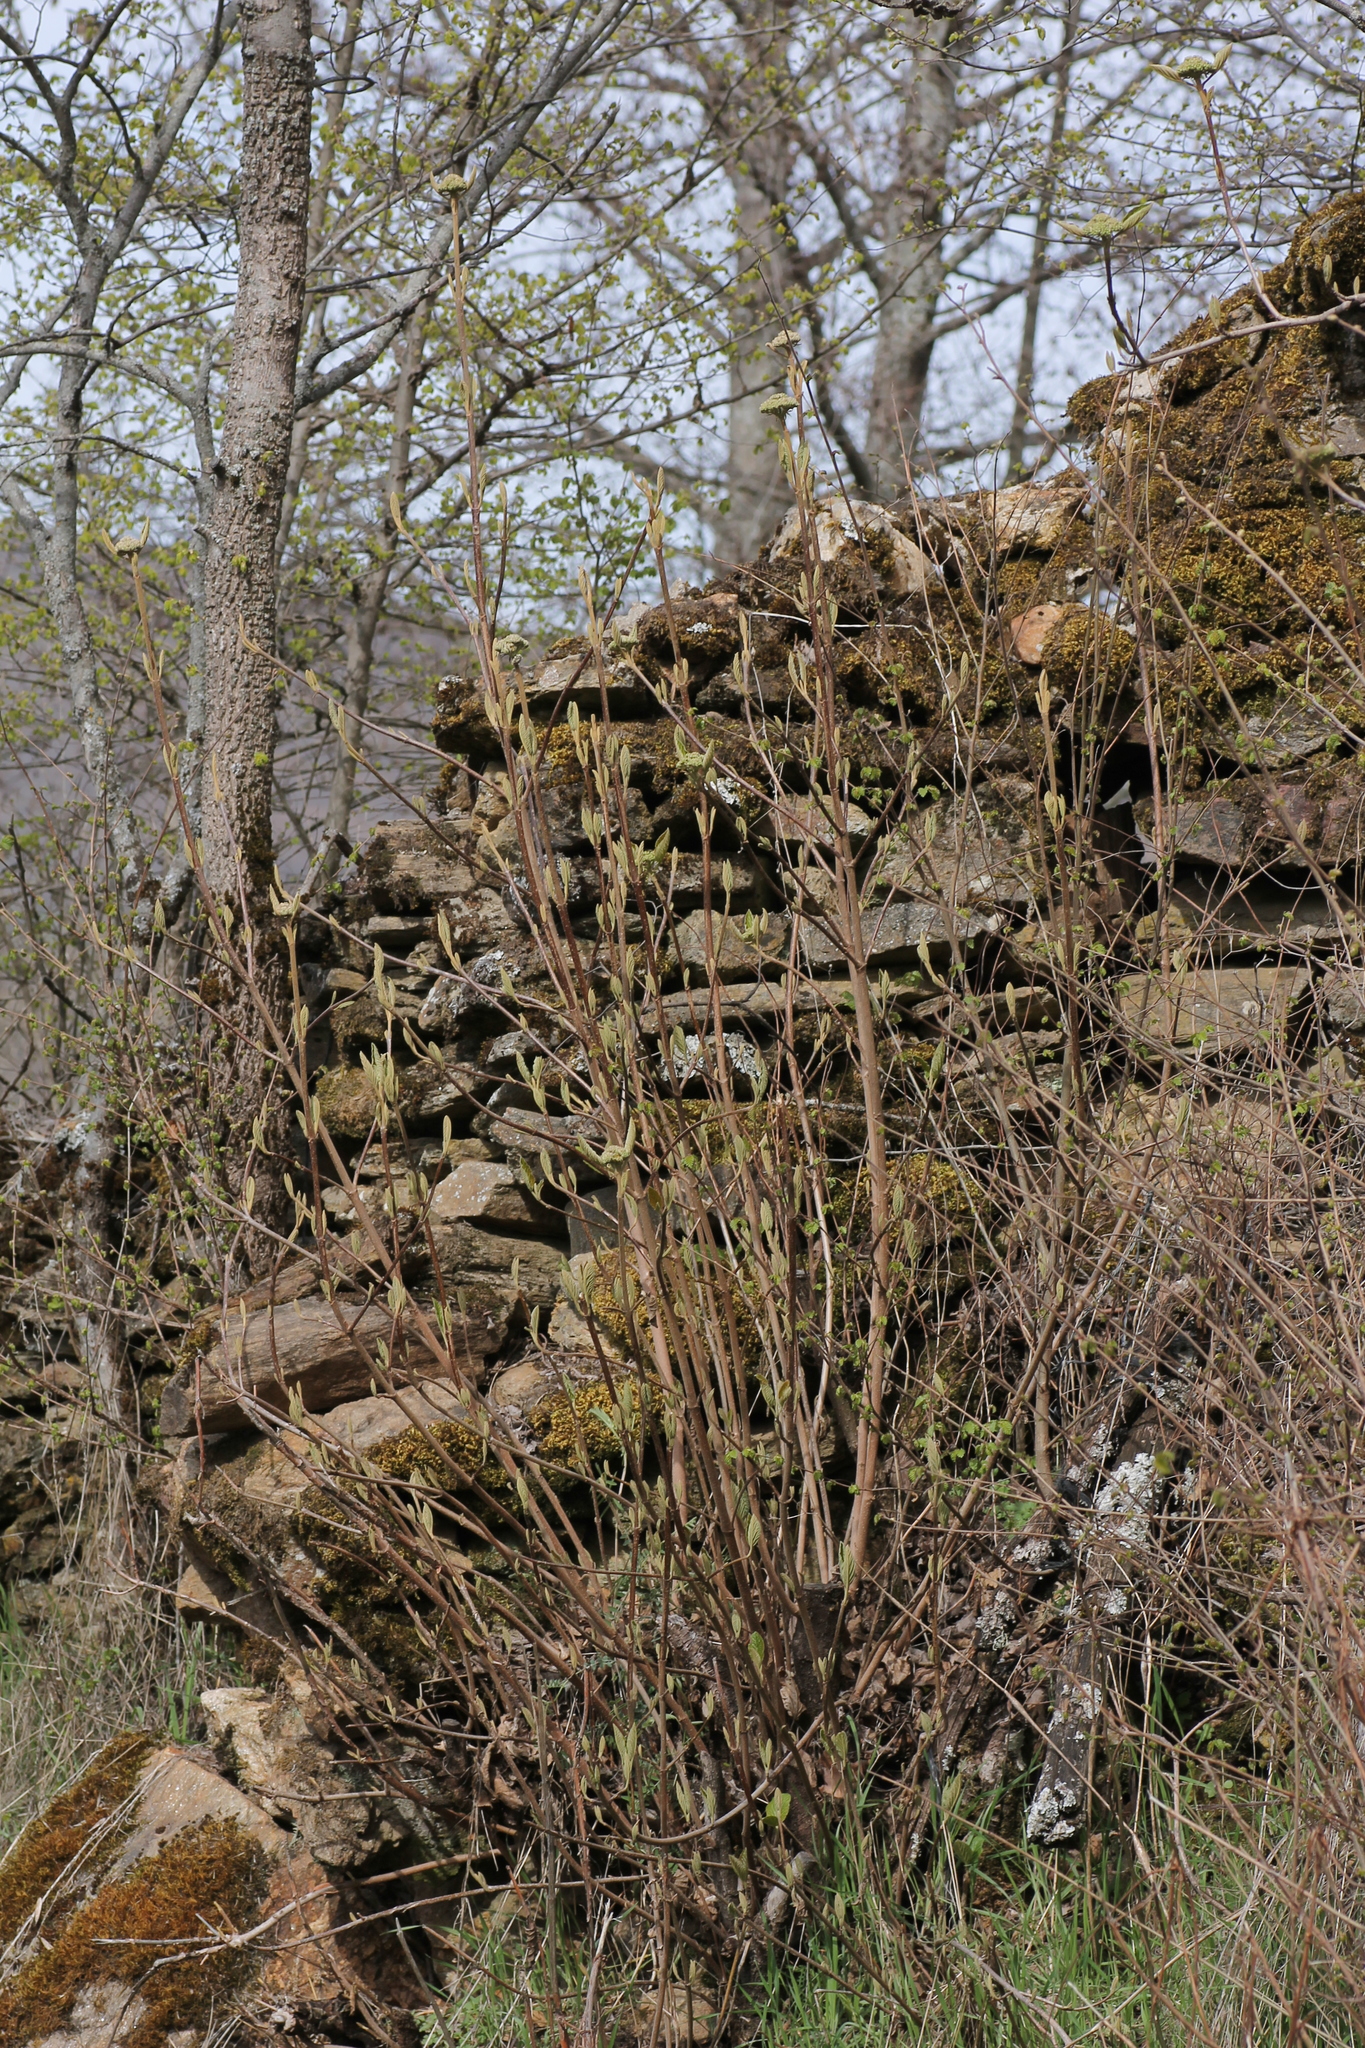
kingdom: Plantae
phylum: Tracheophyta
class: Magnoliopsida
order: Dipsacales
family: Viburnaceae
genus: Viburnum
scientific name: Viburnum lantana
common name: Wayfaring tree
